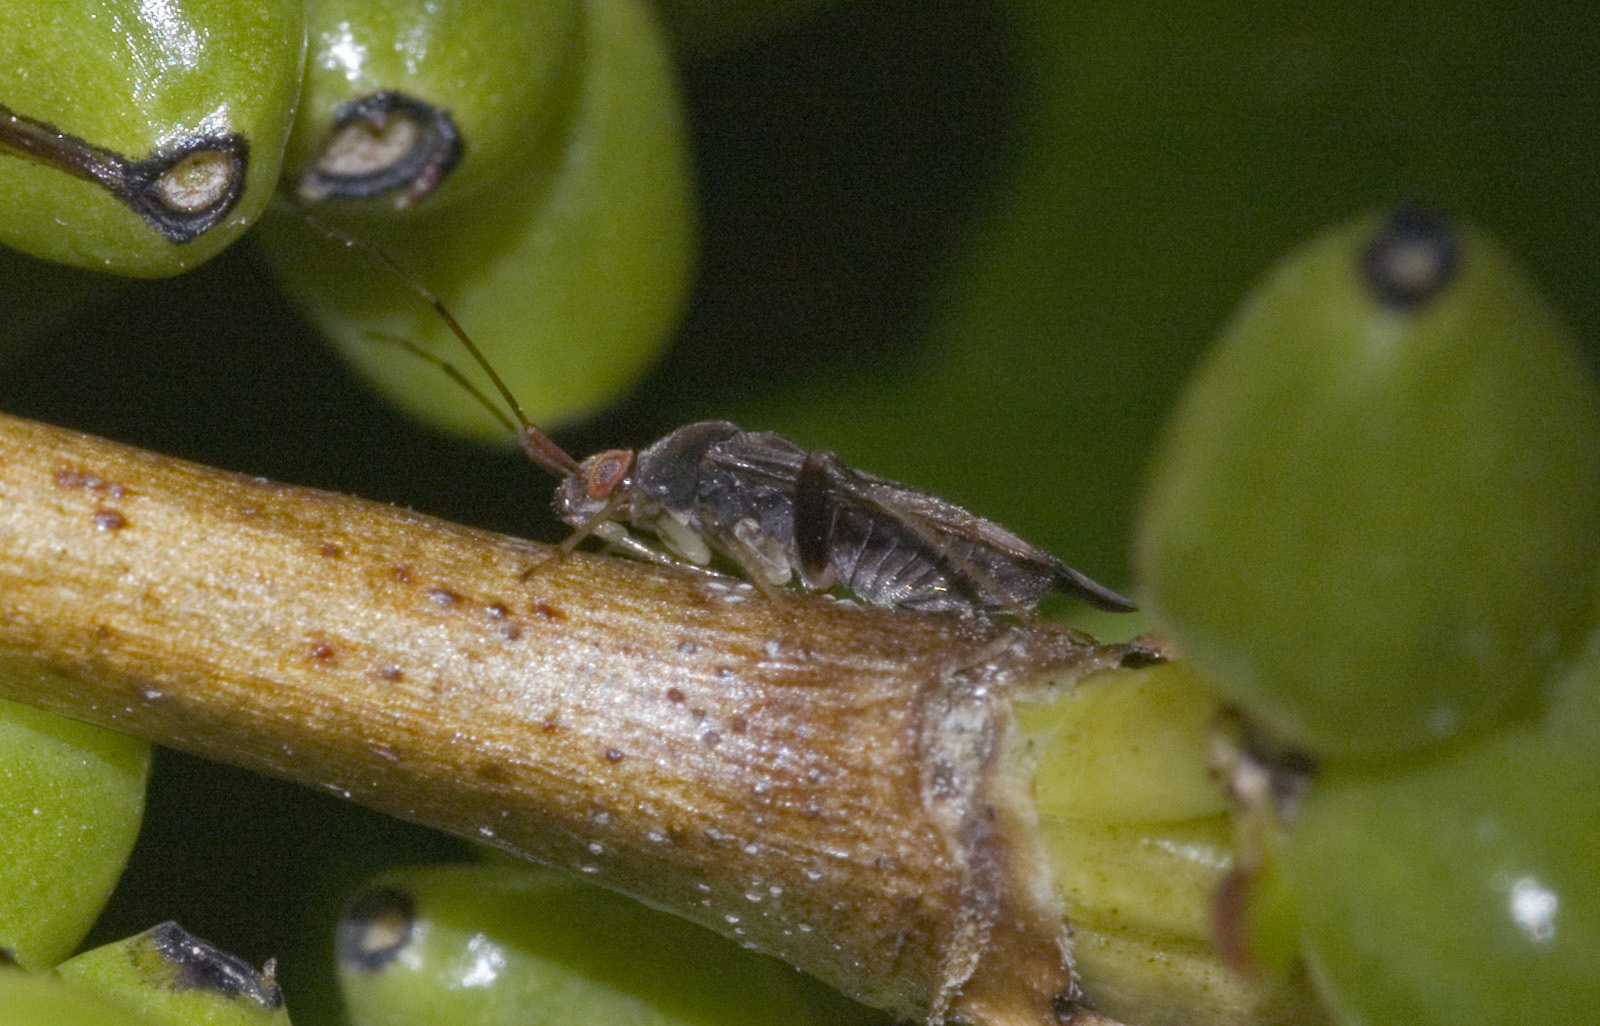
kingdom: Animalia
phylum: Arthropoda
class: Insecta
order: Hemiptera
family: Miridae
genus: Chinamiris
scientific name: Chinamiris indeclivis
